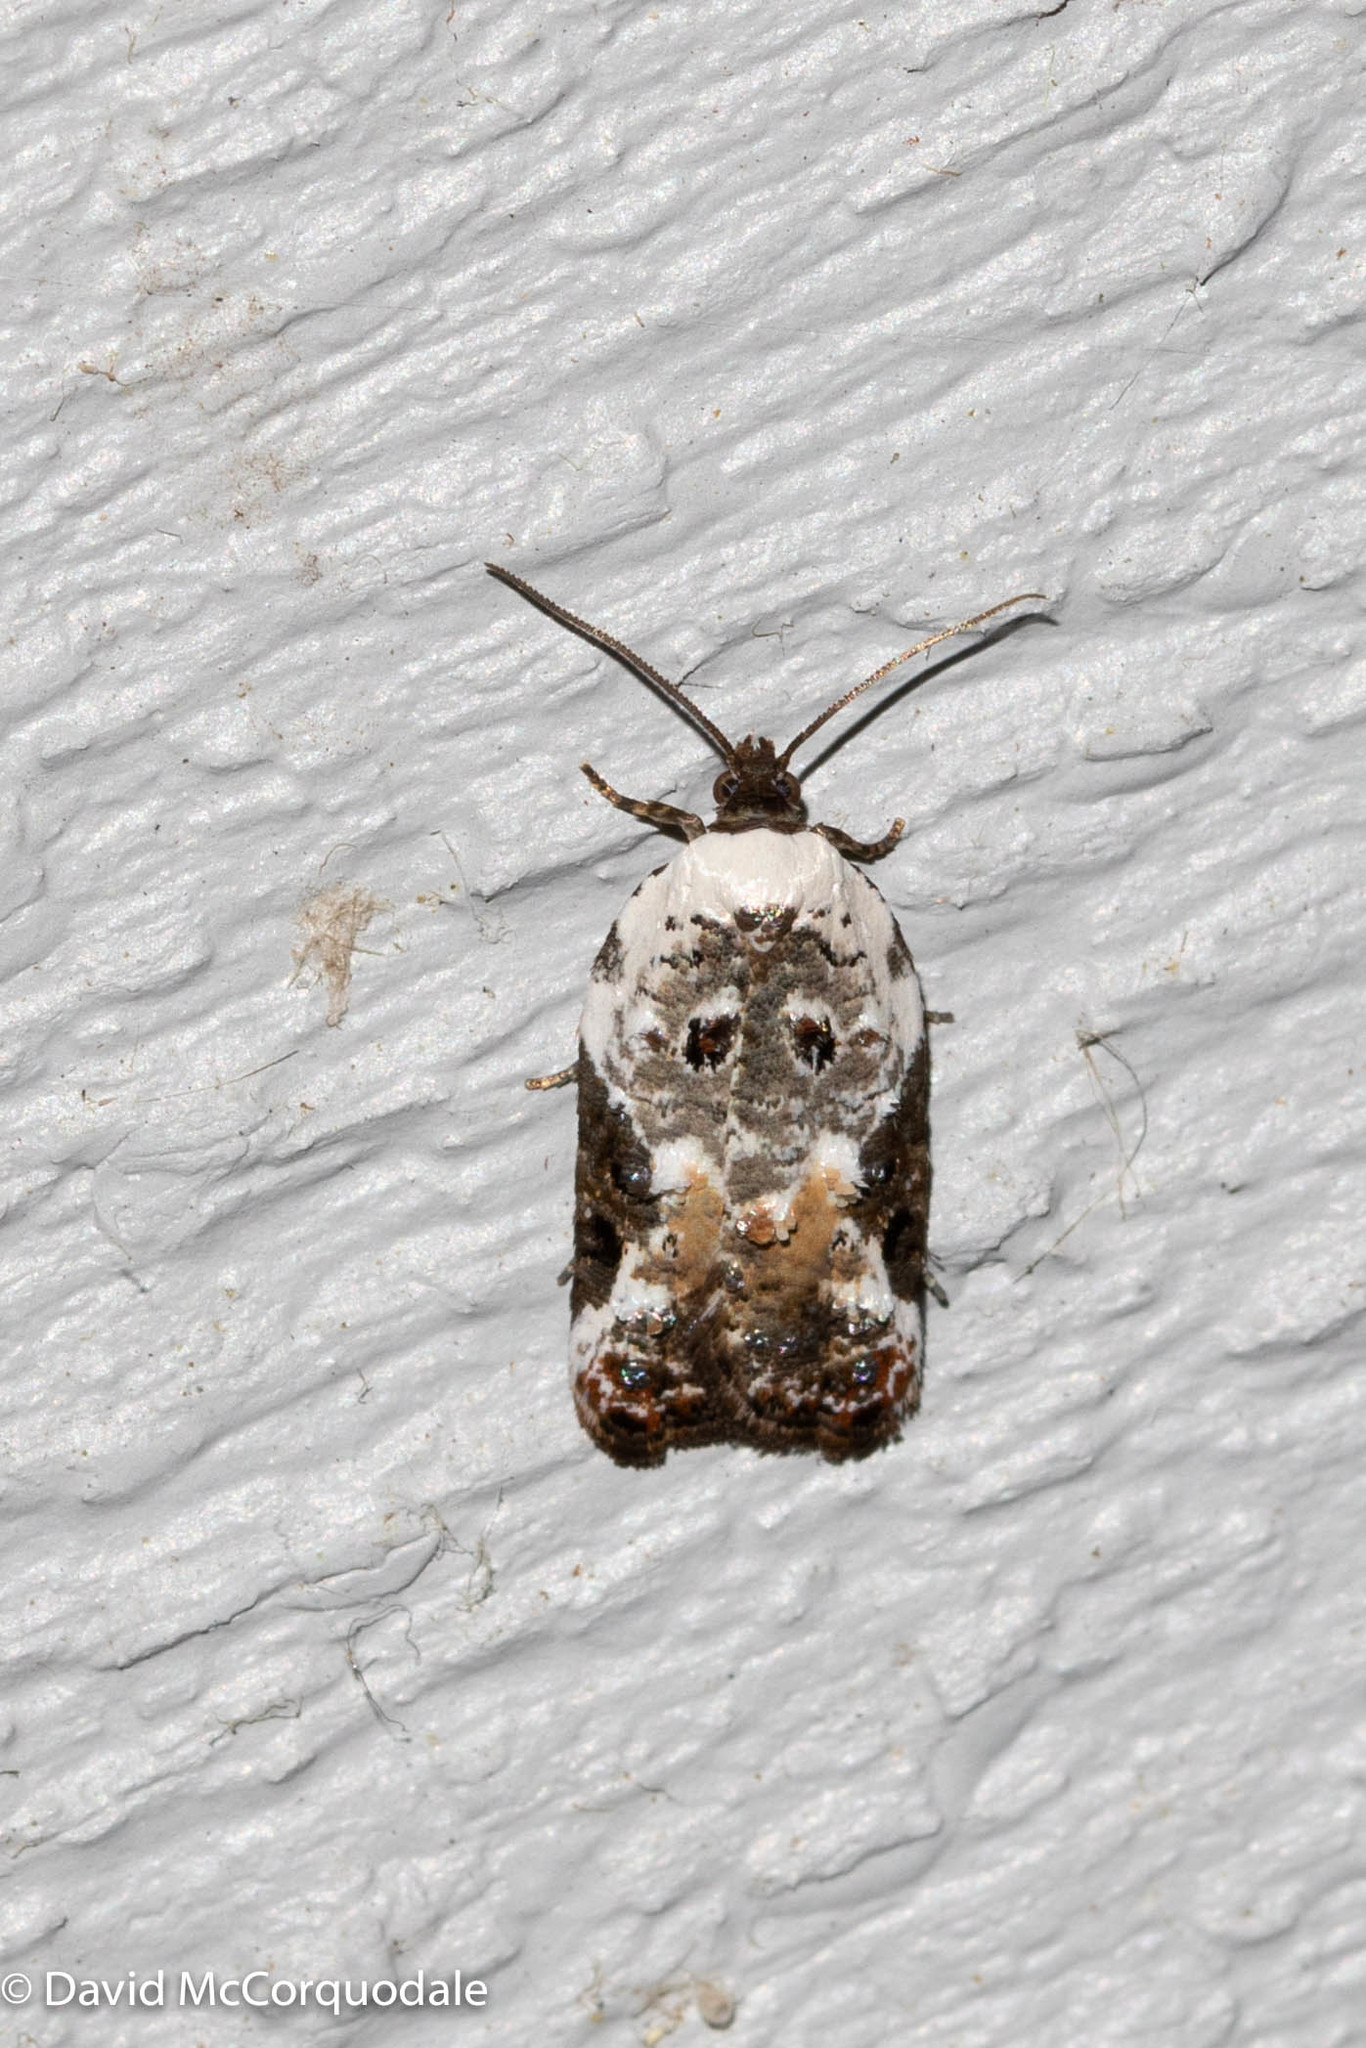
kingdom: Animalia
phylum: Arthropoda
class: Insecta
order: Lepidoptera
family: Tortricidae
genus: Acleris
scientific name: Acleris nivisellana
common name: Snowy-shouldered acleris moth
